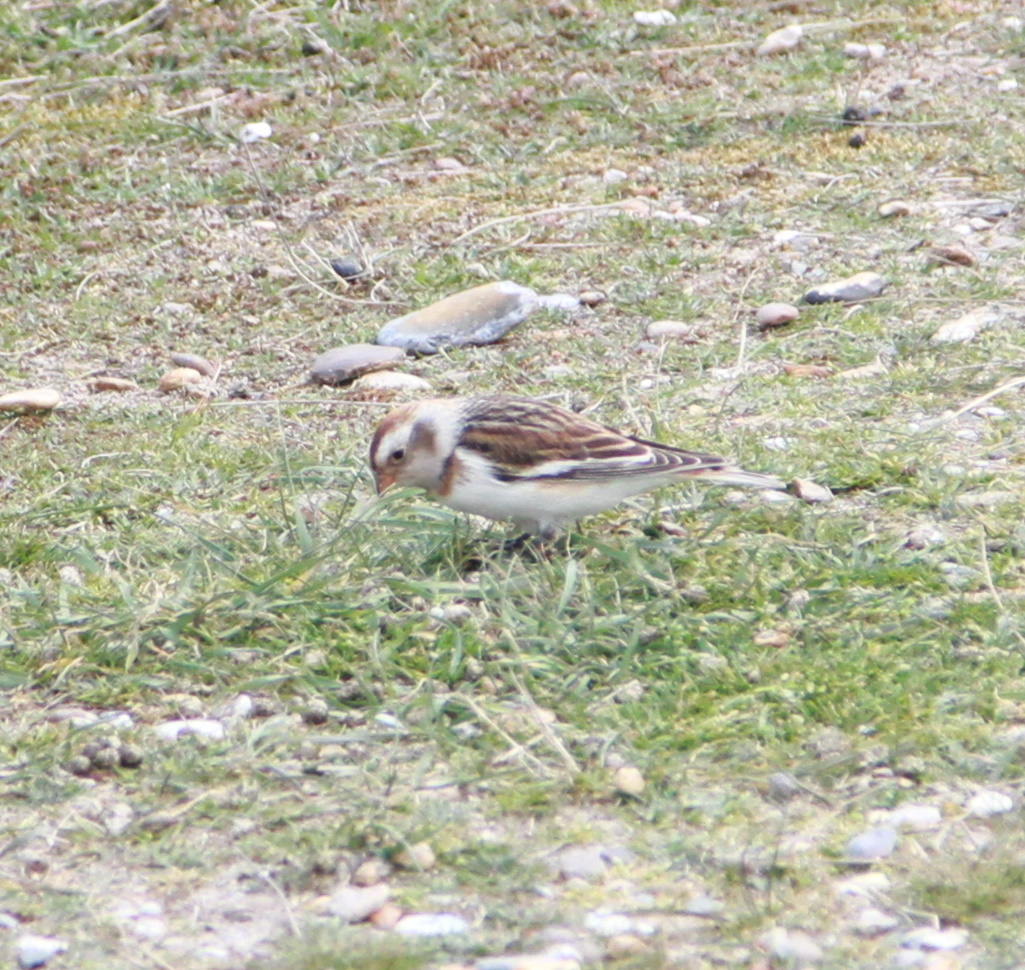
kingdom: Animalia
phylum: Chordata
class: Aves
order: Passeriformes
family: Calcariidae
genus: Plectrophenax
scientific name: Plectrophenax nivalis
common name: Snow bunting
